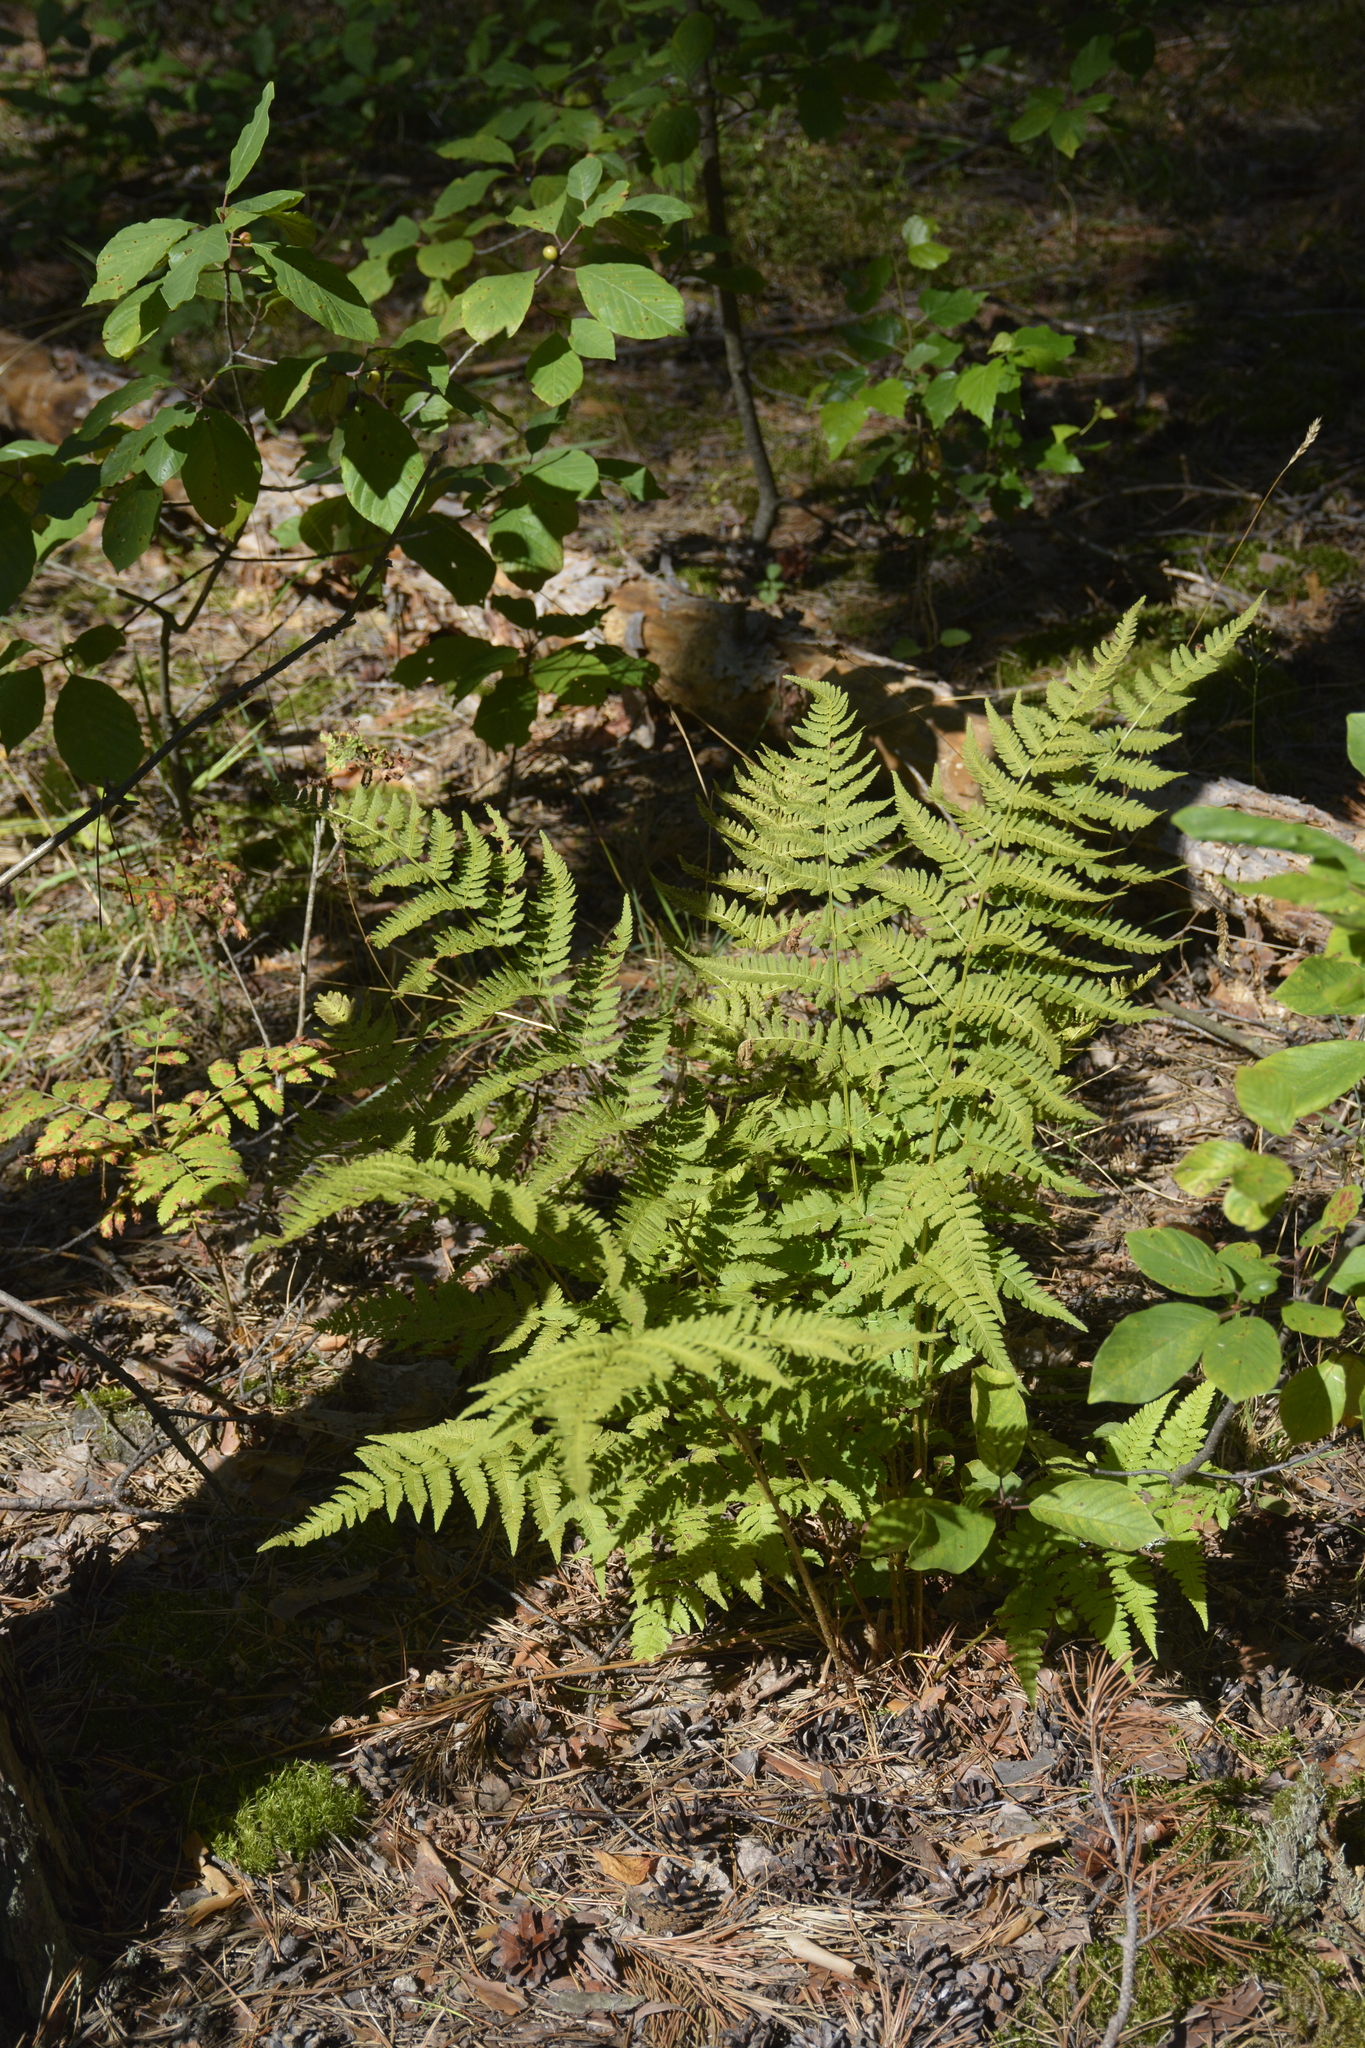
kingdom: Plantae
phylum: Tracheophyta
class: Polypodiopsida
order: Polypodiales
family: Dryopteridaceae
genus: Dryopteris
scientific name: Dryopteris carthusiana
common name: Narrow buckler-fern
